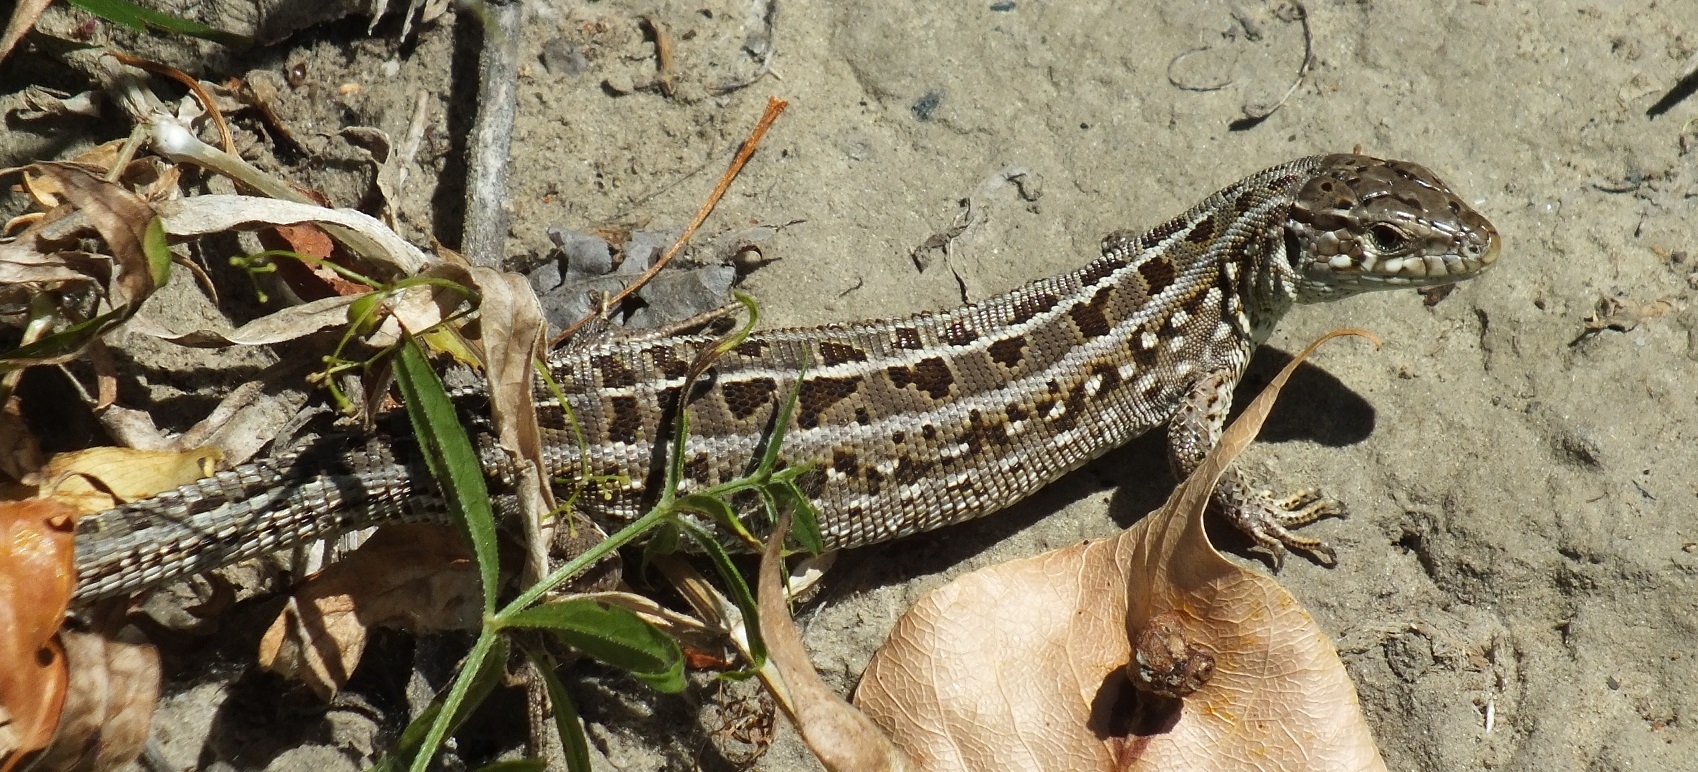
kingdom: Animalia
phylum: Chordata
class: Squamata
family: Lacertidae
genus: Lacerta
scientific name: Lacerta agilis
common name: Sand lizard
